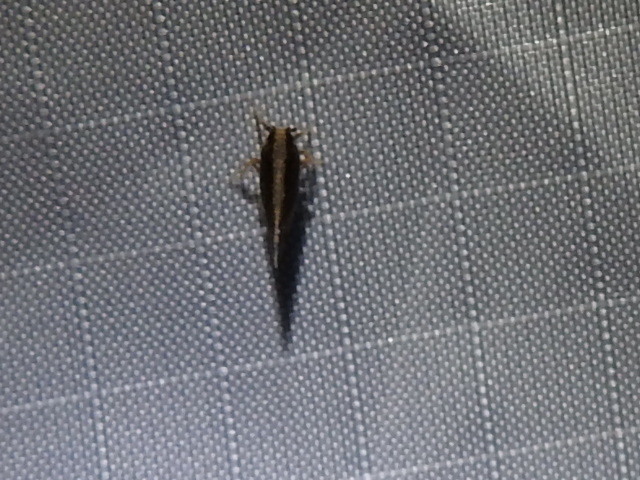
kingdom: Animalia
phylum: Arthropoda
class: Insecta
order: Hemiptera
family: Cixiidae
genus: Pintalia
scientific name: Pintalia delicata
